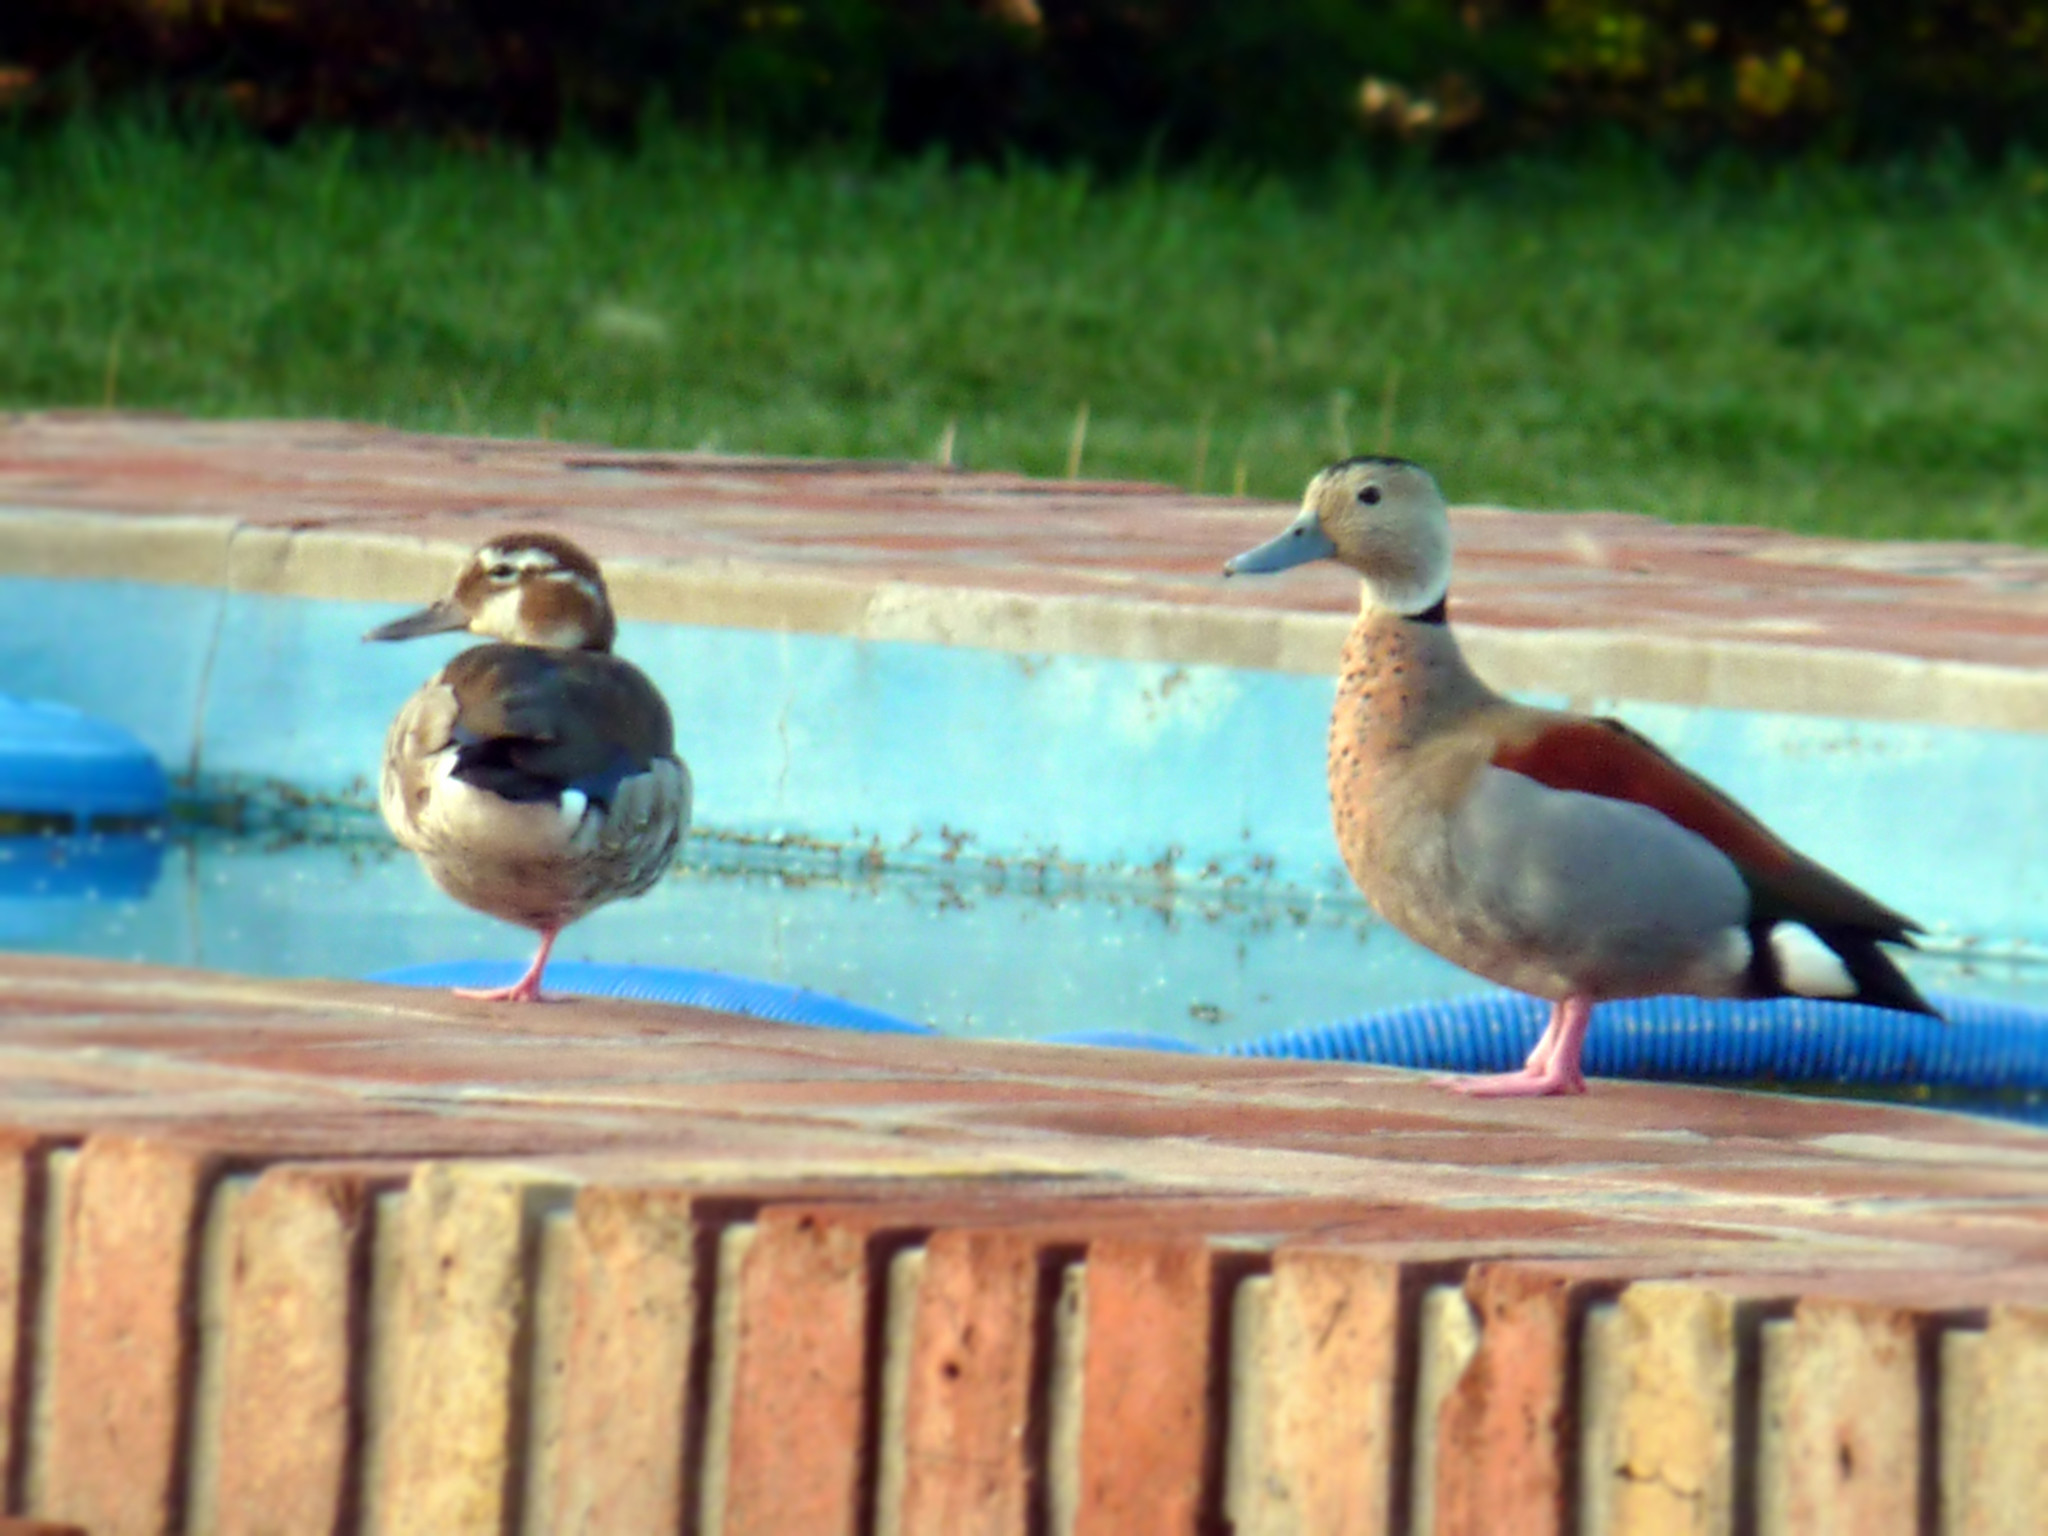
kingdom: Animalia
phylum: Chordata
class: Aves
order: Anseriformes
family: Anatidae
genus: Callonetta
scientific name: Callonetta leucophrys
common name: Ringed teal
